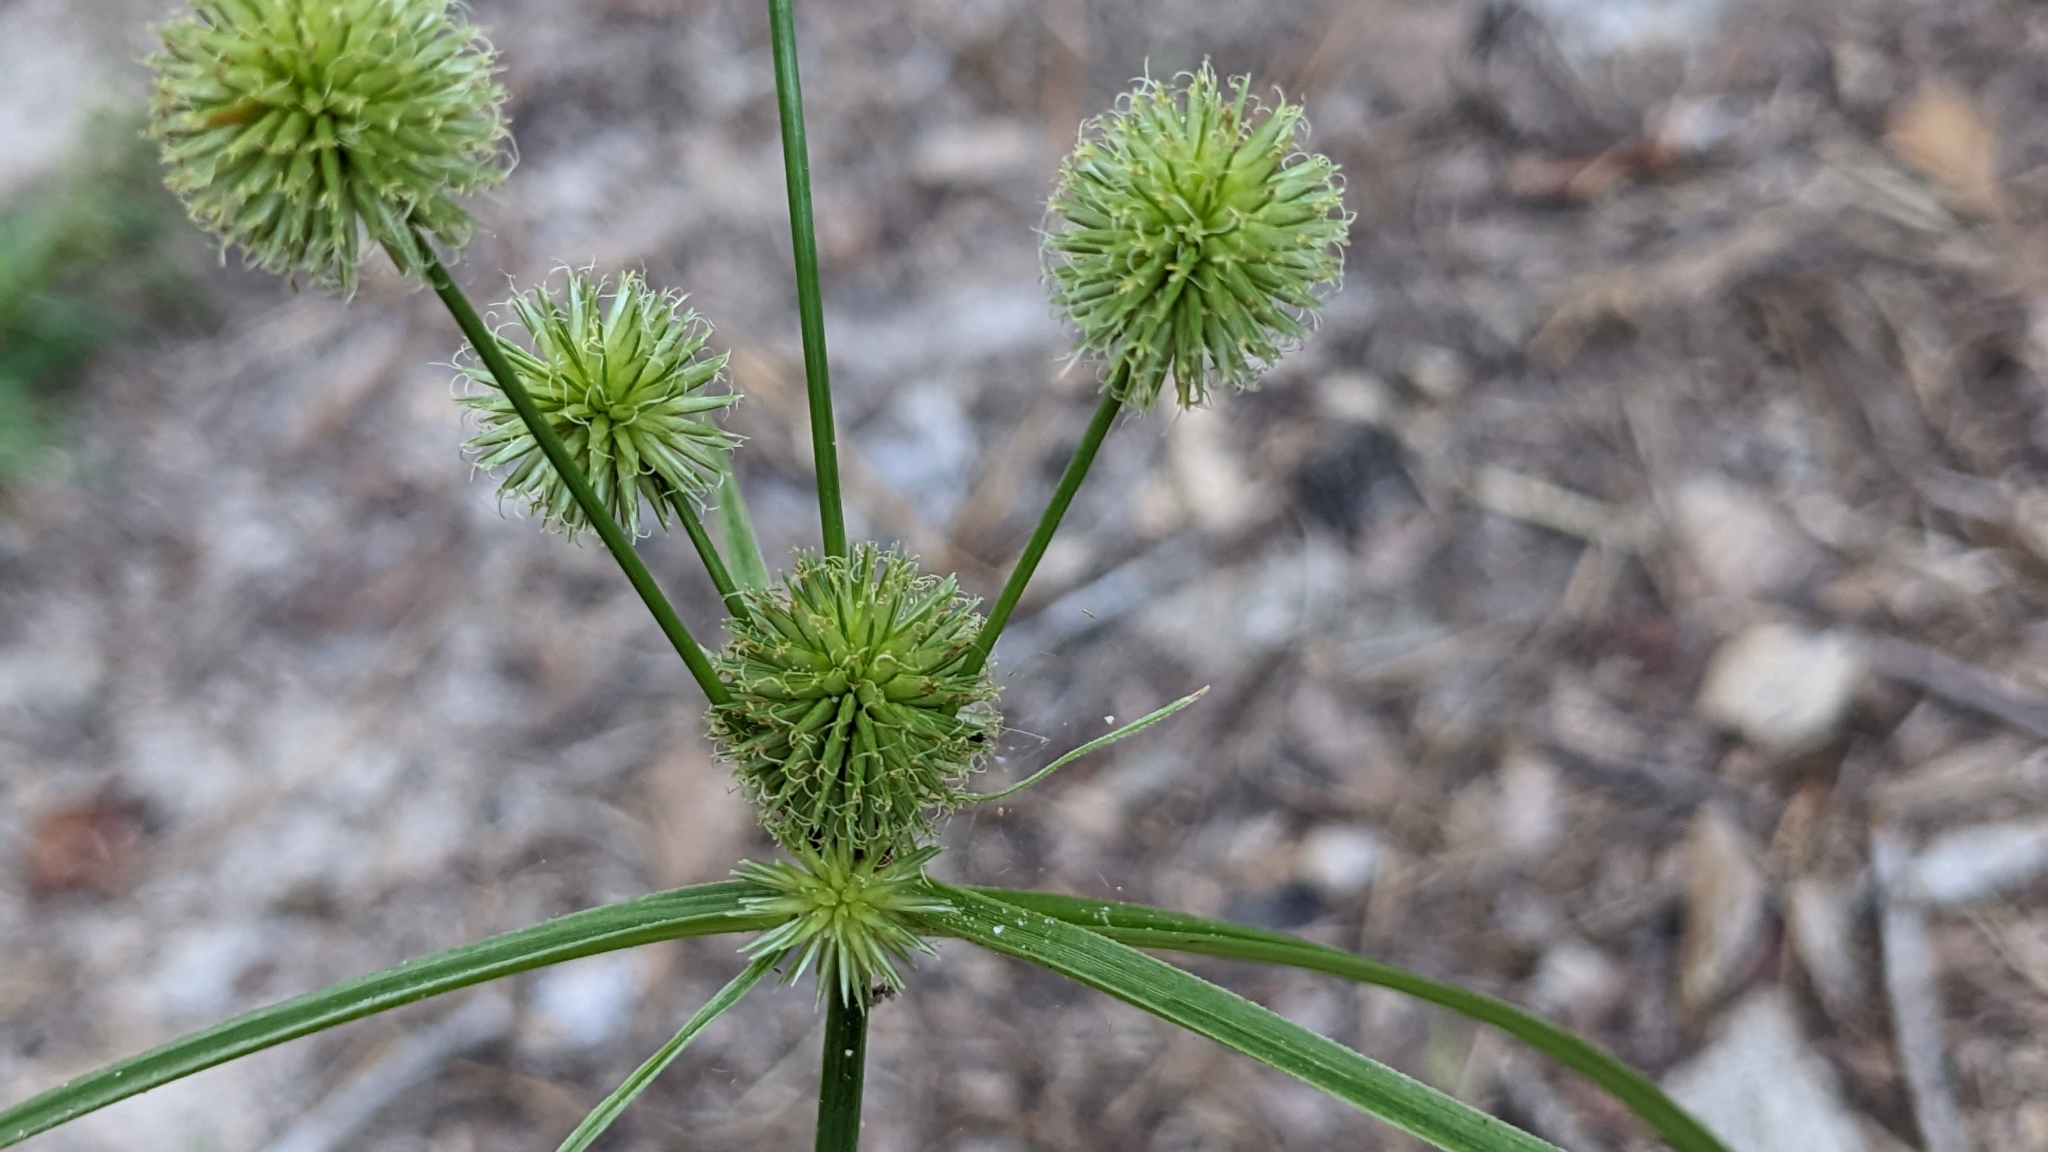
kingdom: Plantae
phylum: Tracheophyta
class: Liliopsida
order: Poales
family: Cyperaceae
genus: Cyperus
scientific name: Cyperus echinatus
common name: Teasel sedge
